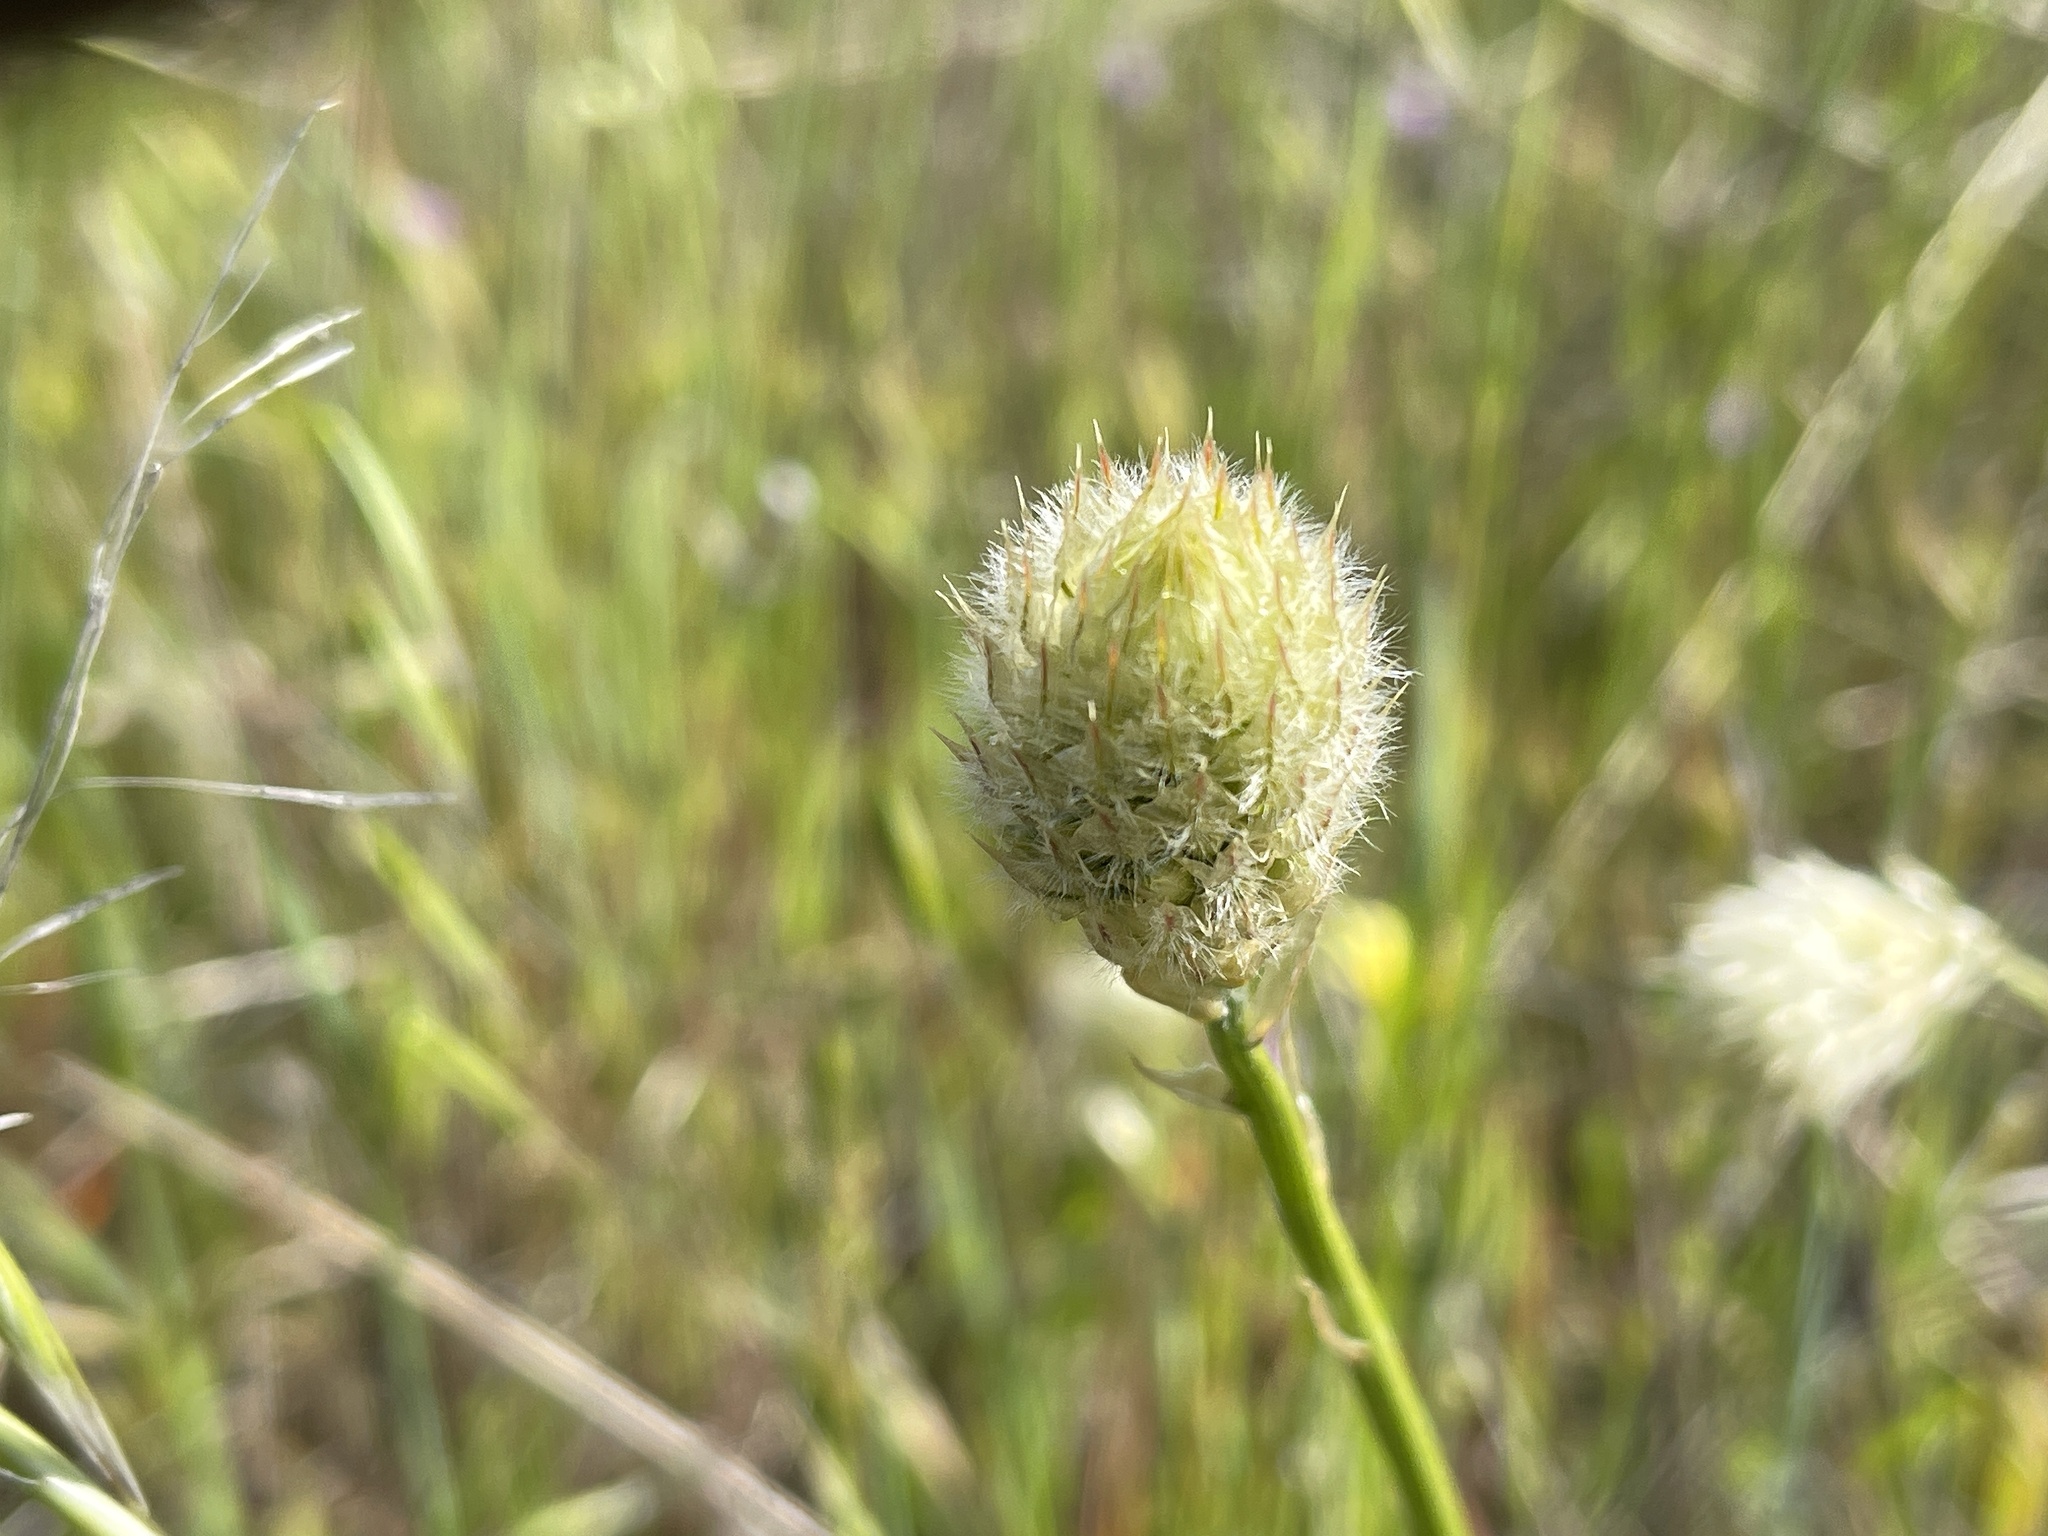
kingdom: Plantae
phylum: Tracheophyta
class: Magnoliopsida
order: Caryophyllales
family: Amaranthaceae
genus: Ptilotus
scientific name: Ptilotus macrocephalus
